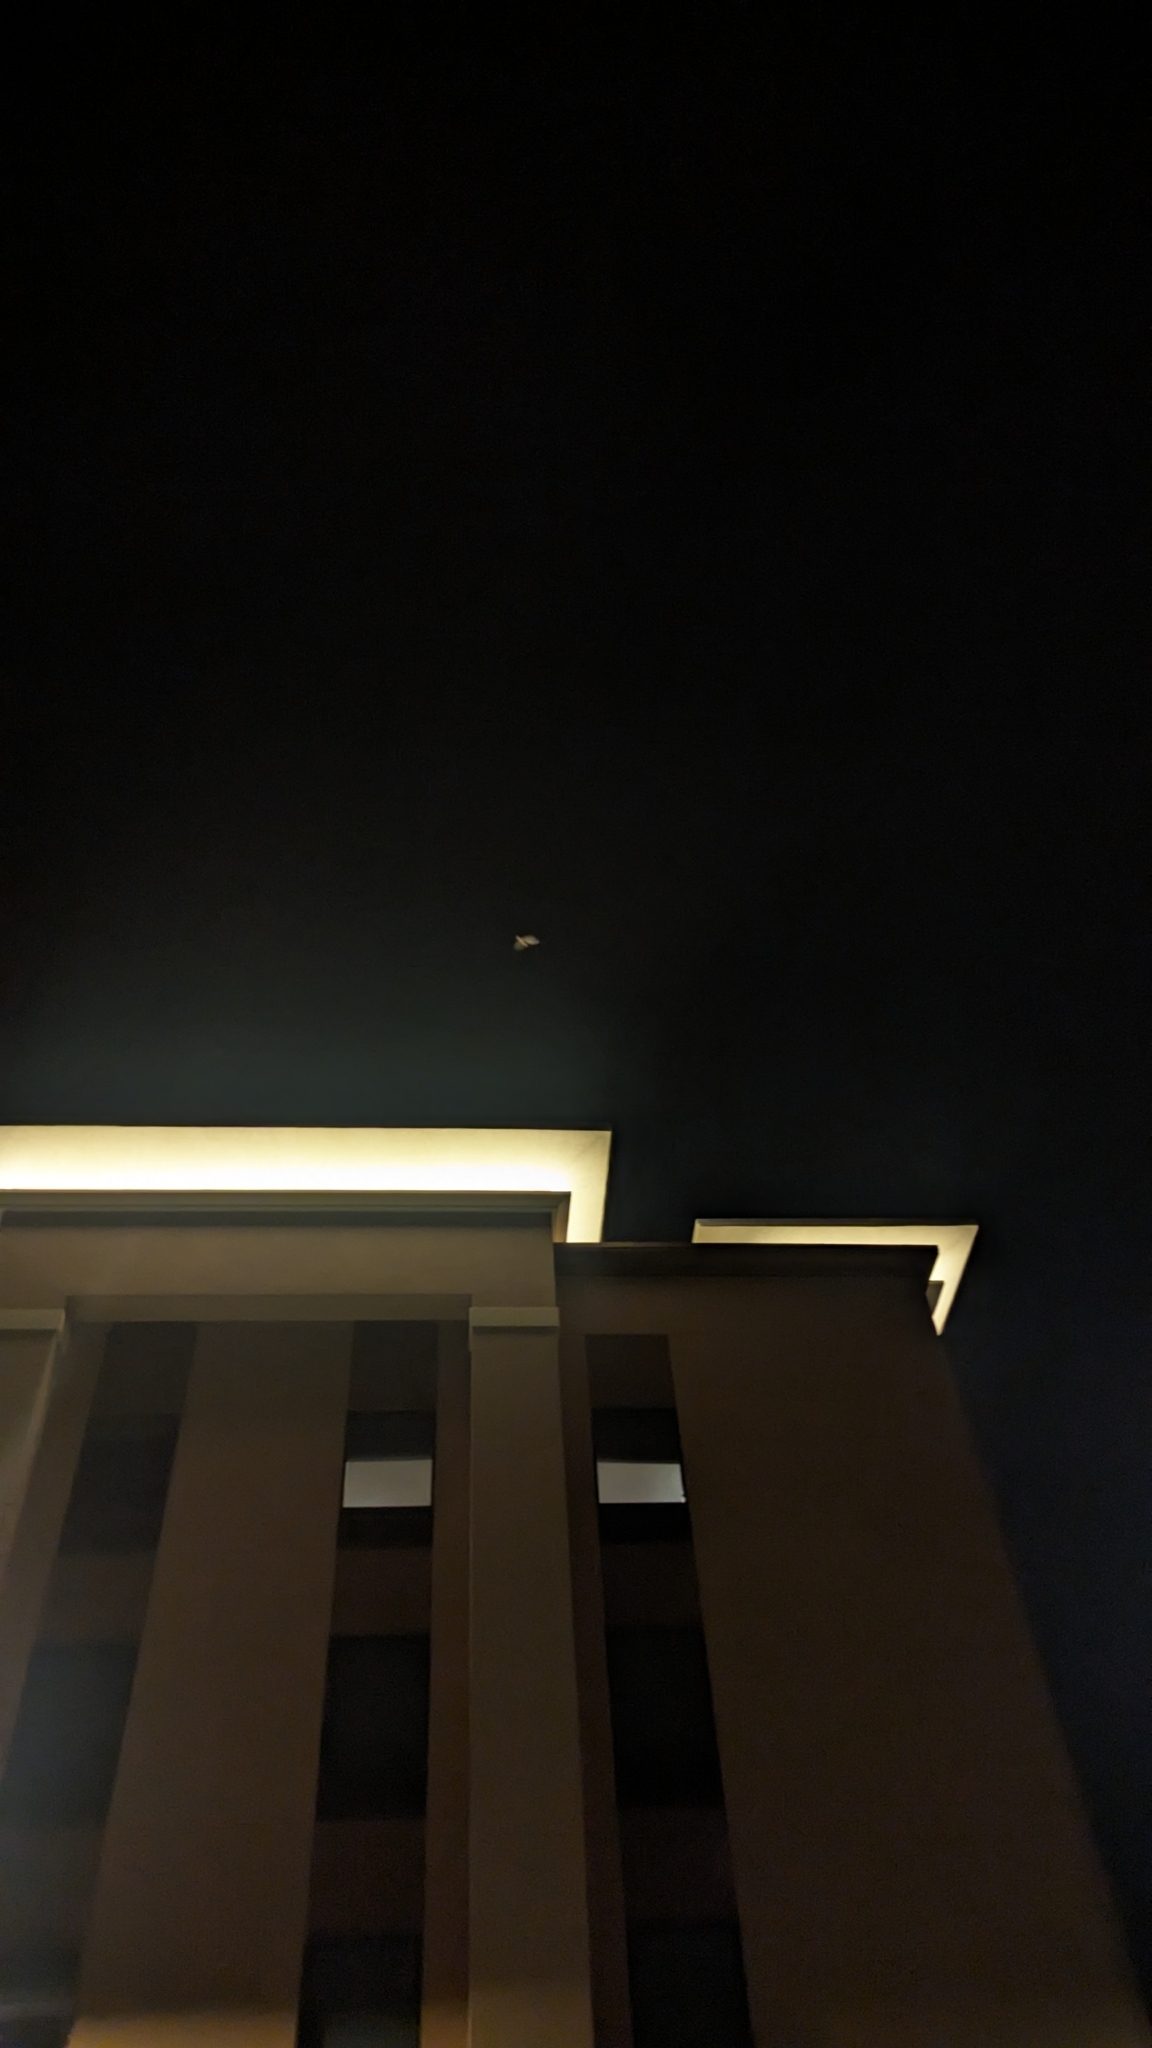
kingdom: Animalia
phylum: Chordata
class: Aves
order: Caprimulgiformes
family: Caprimulgidae
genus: Chordeiles
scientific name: Chordeiles acutipennis
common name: Lesser nighthawk
